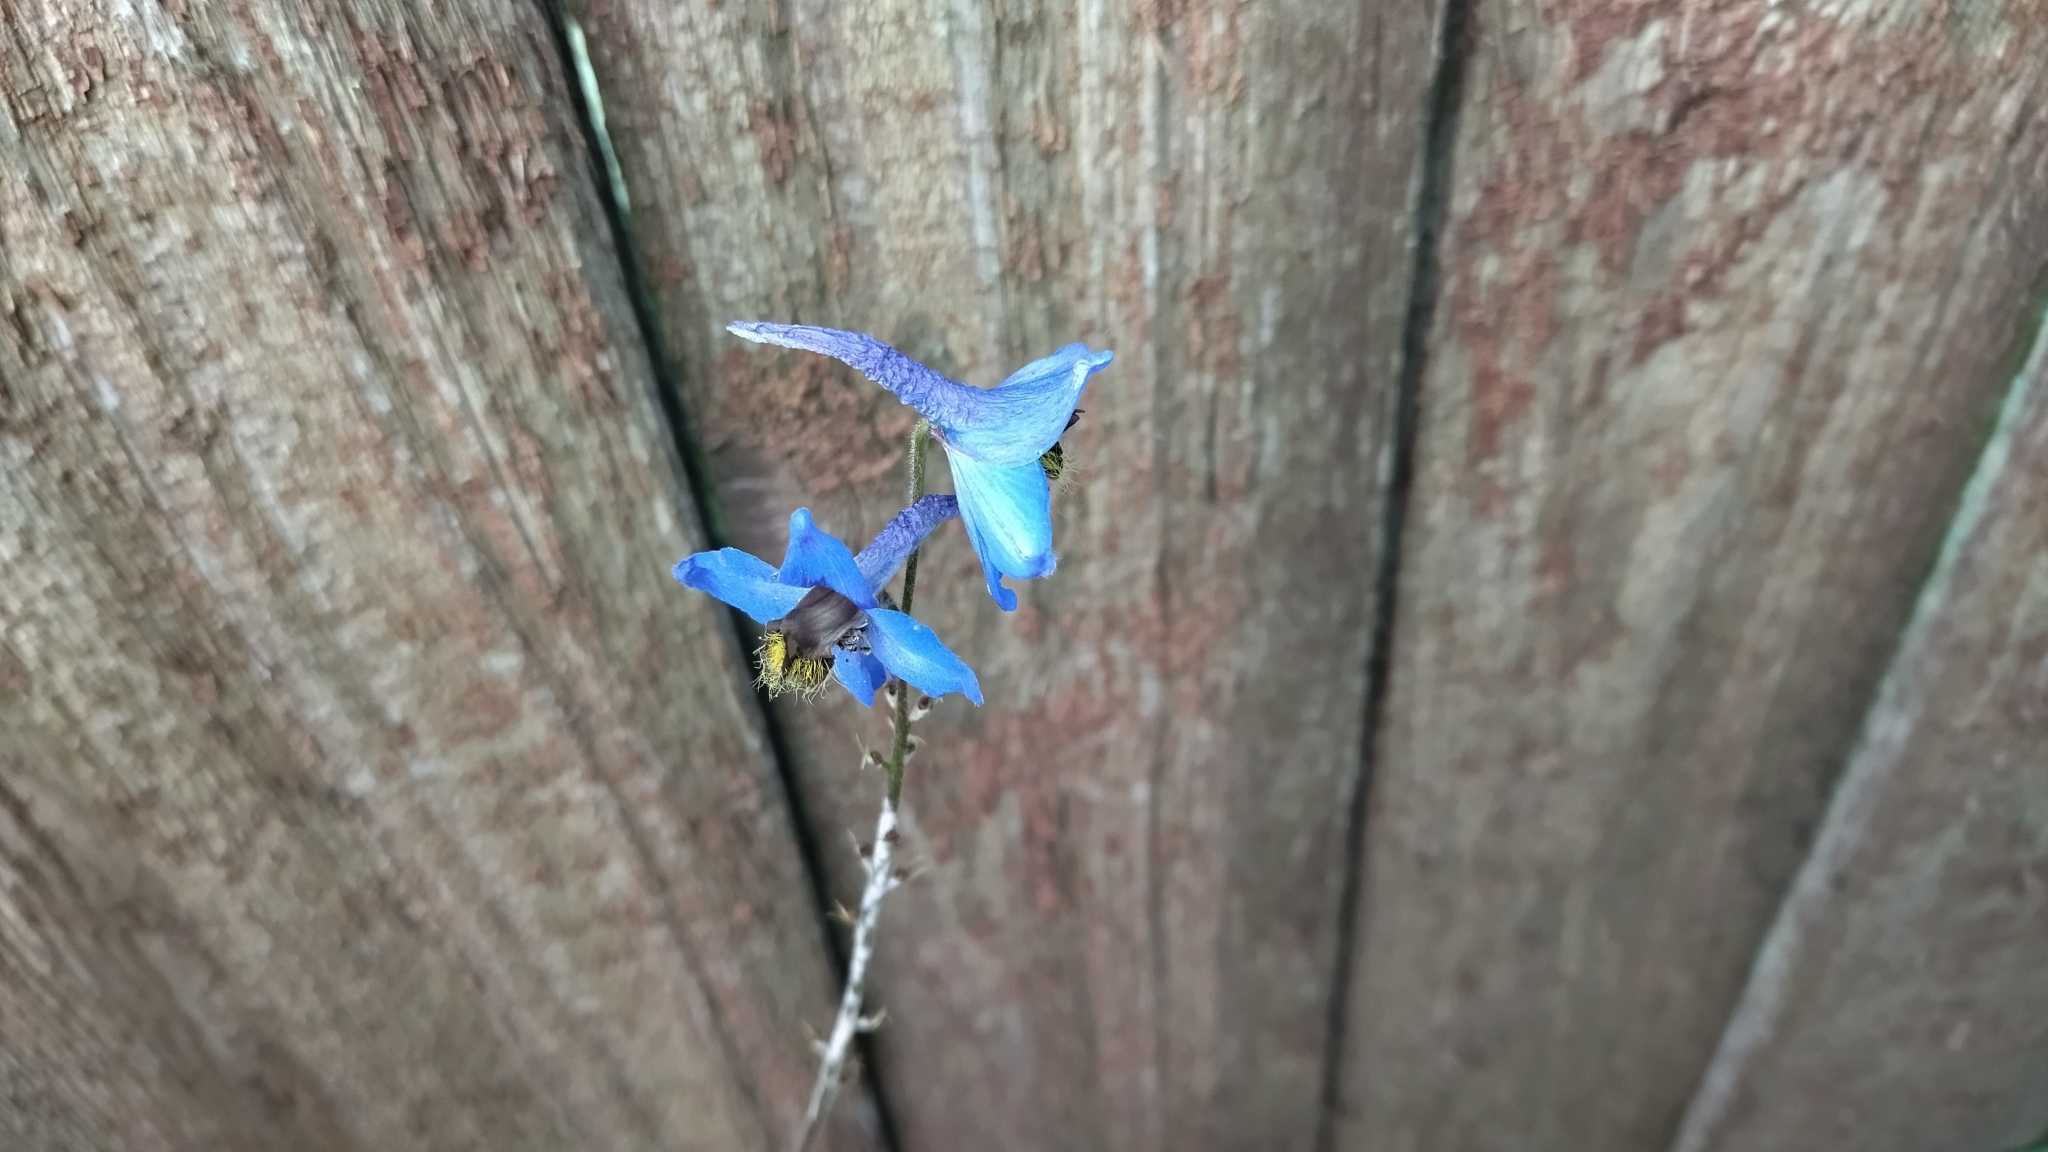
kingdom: Plantae
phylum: Tracheophyta
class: Magnoliopsida
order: Ranunculales
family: Ranunculaceae
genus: Delphinium
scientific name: Delphinium cultorum
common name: Garden delphinium
